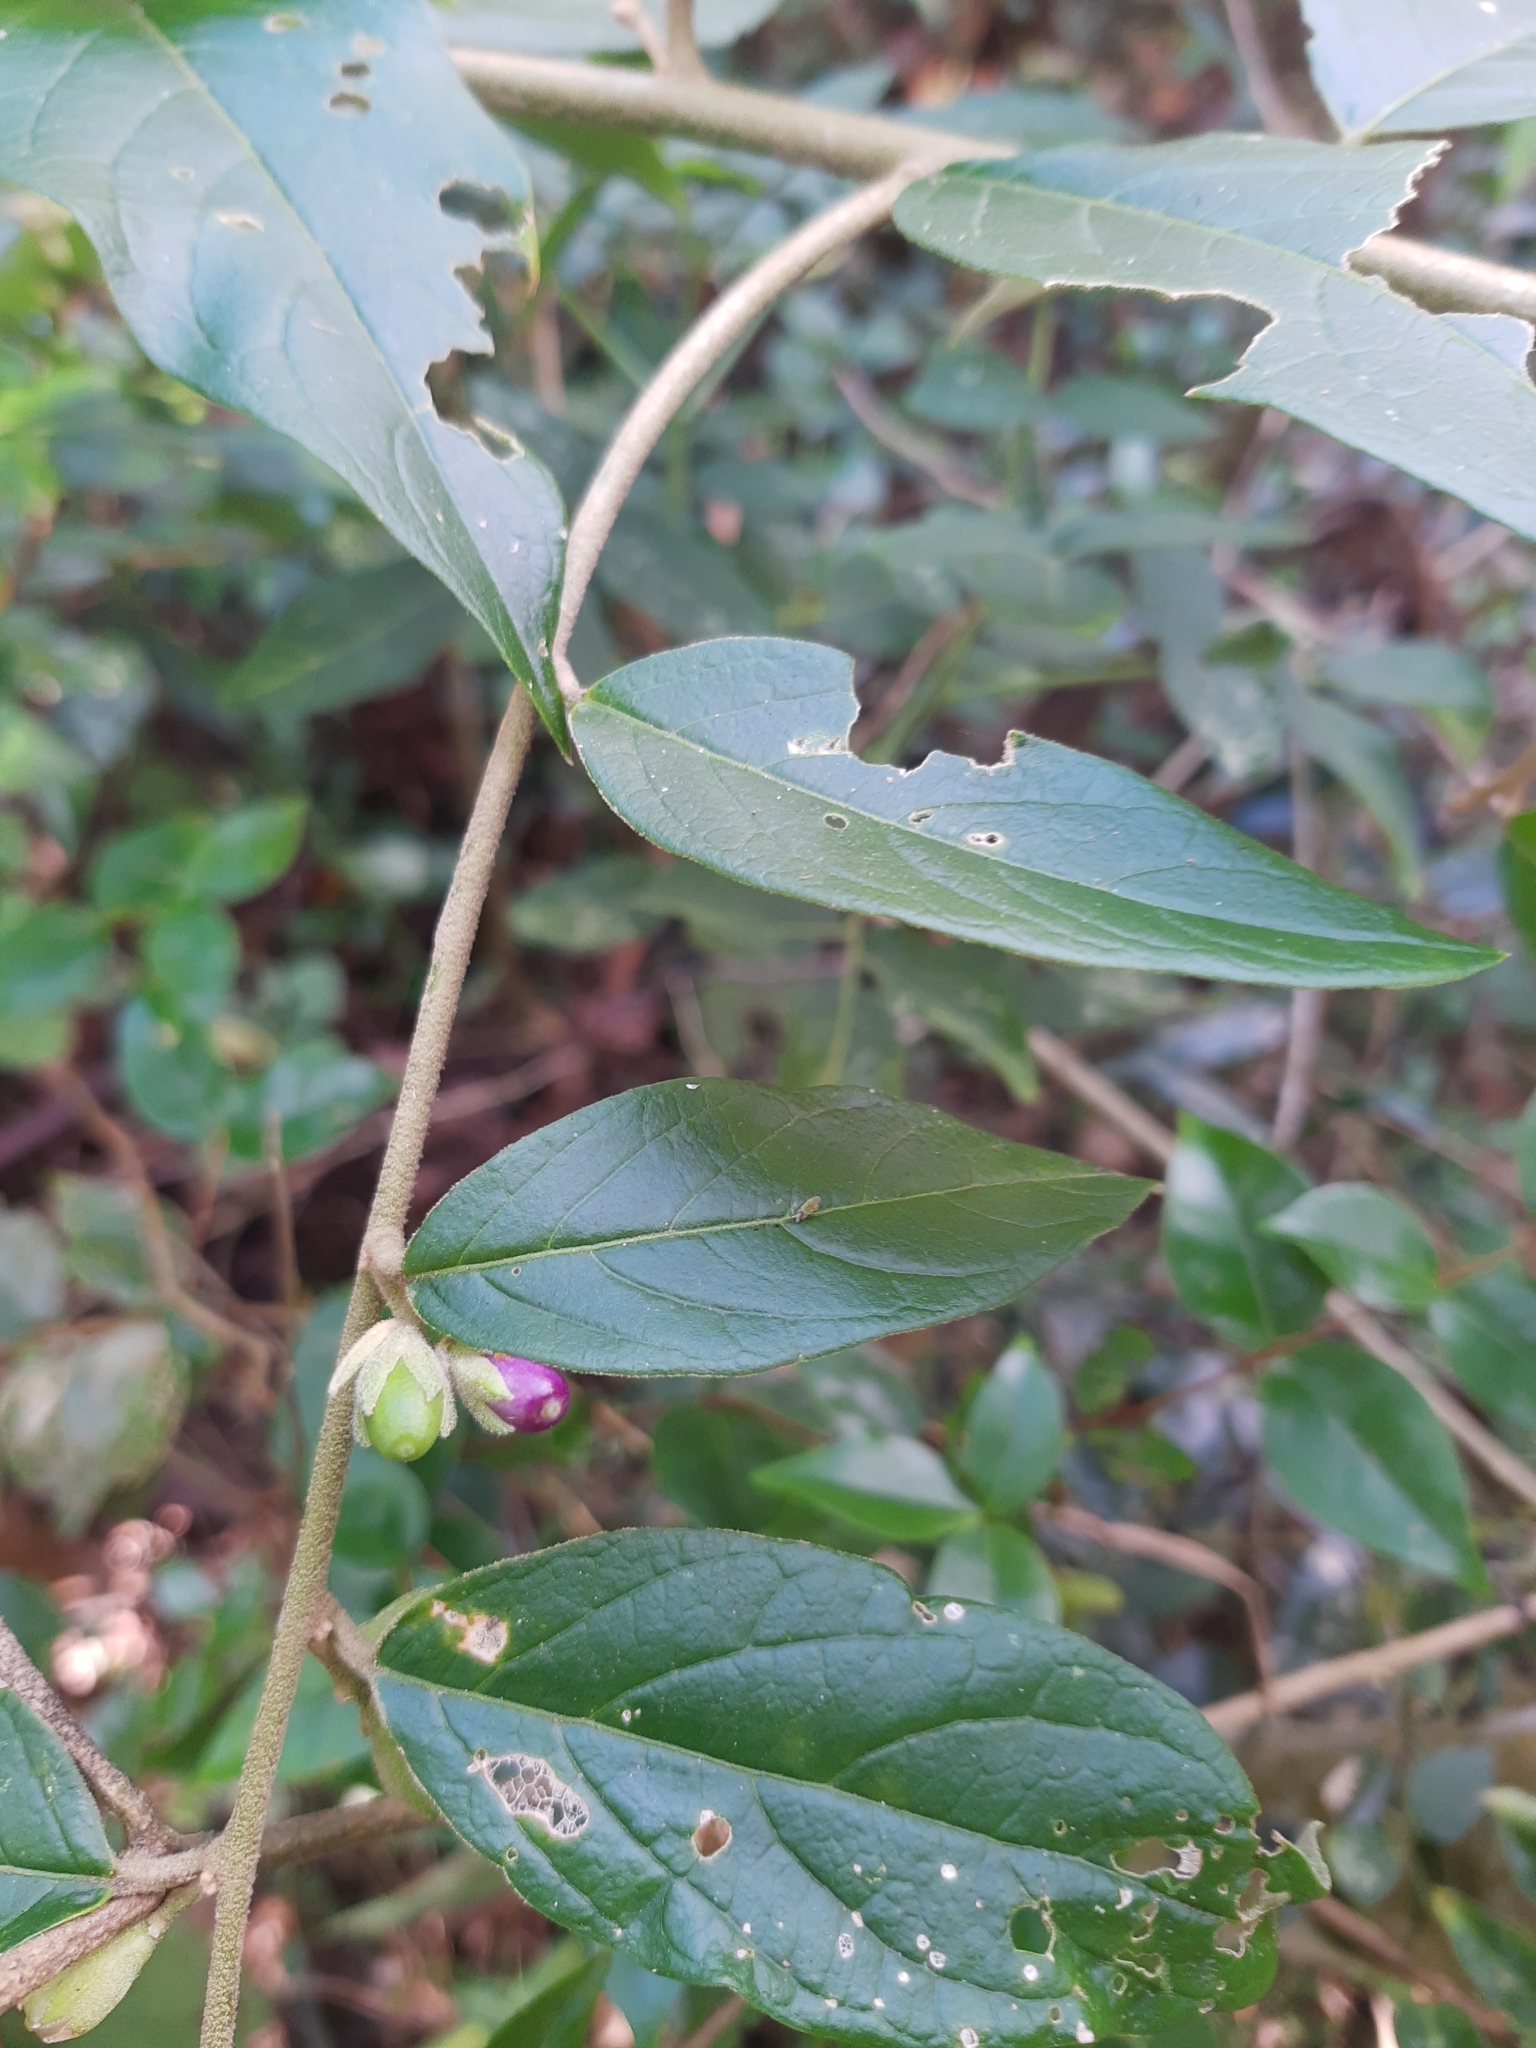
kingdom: Plantae
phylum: Tracheophyta
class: Magnoliopsida
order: Solanales
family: Solanaceae
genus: Cestrum
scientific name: Cestrum strigillatum
